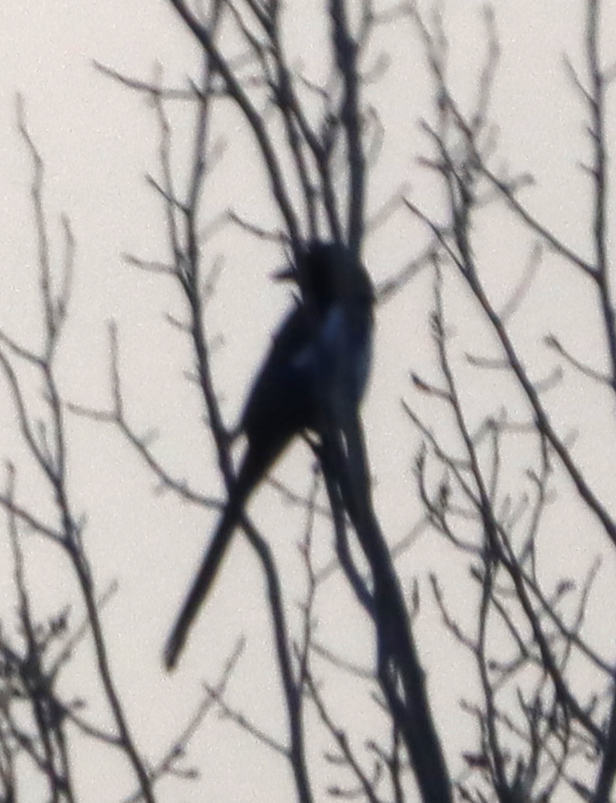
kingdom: Animalia
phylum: Chordata
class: Aves
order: Passeriformes
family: Corvidae
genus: Pica
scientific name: Pica hudsonia
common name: Black-billed magpie
